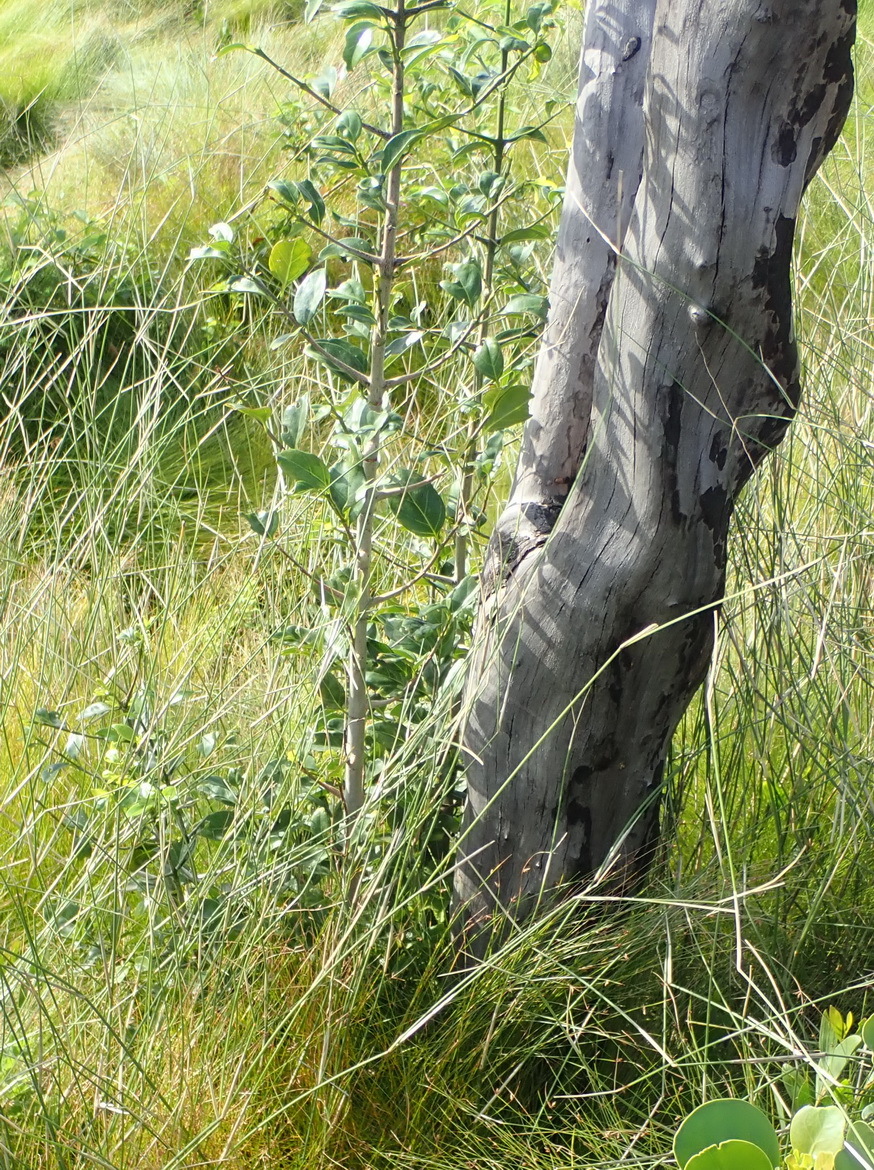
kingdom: Plantae
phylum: Tracheophyta
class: Magnoliopsida
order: Gentianales
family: Rubiaceae
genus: Canthium
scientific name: Canthium inerme
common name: Unarmed turkey-berry
